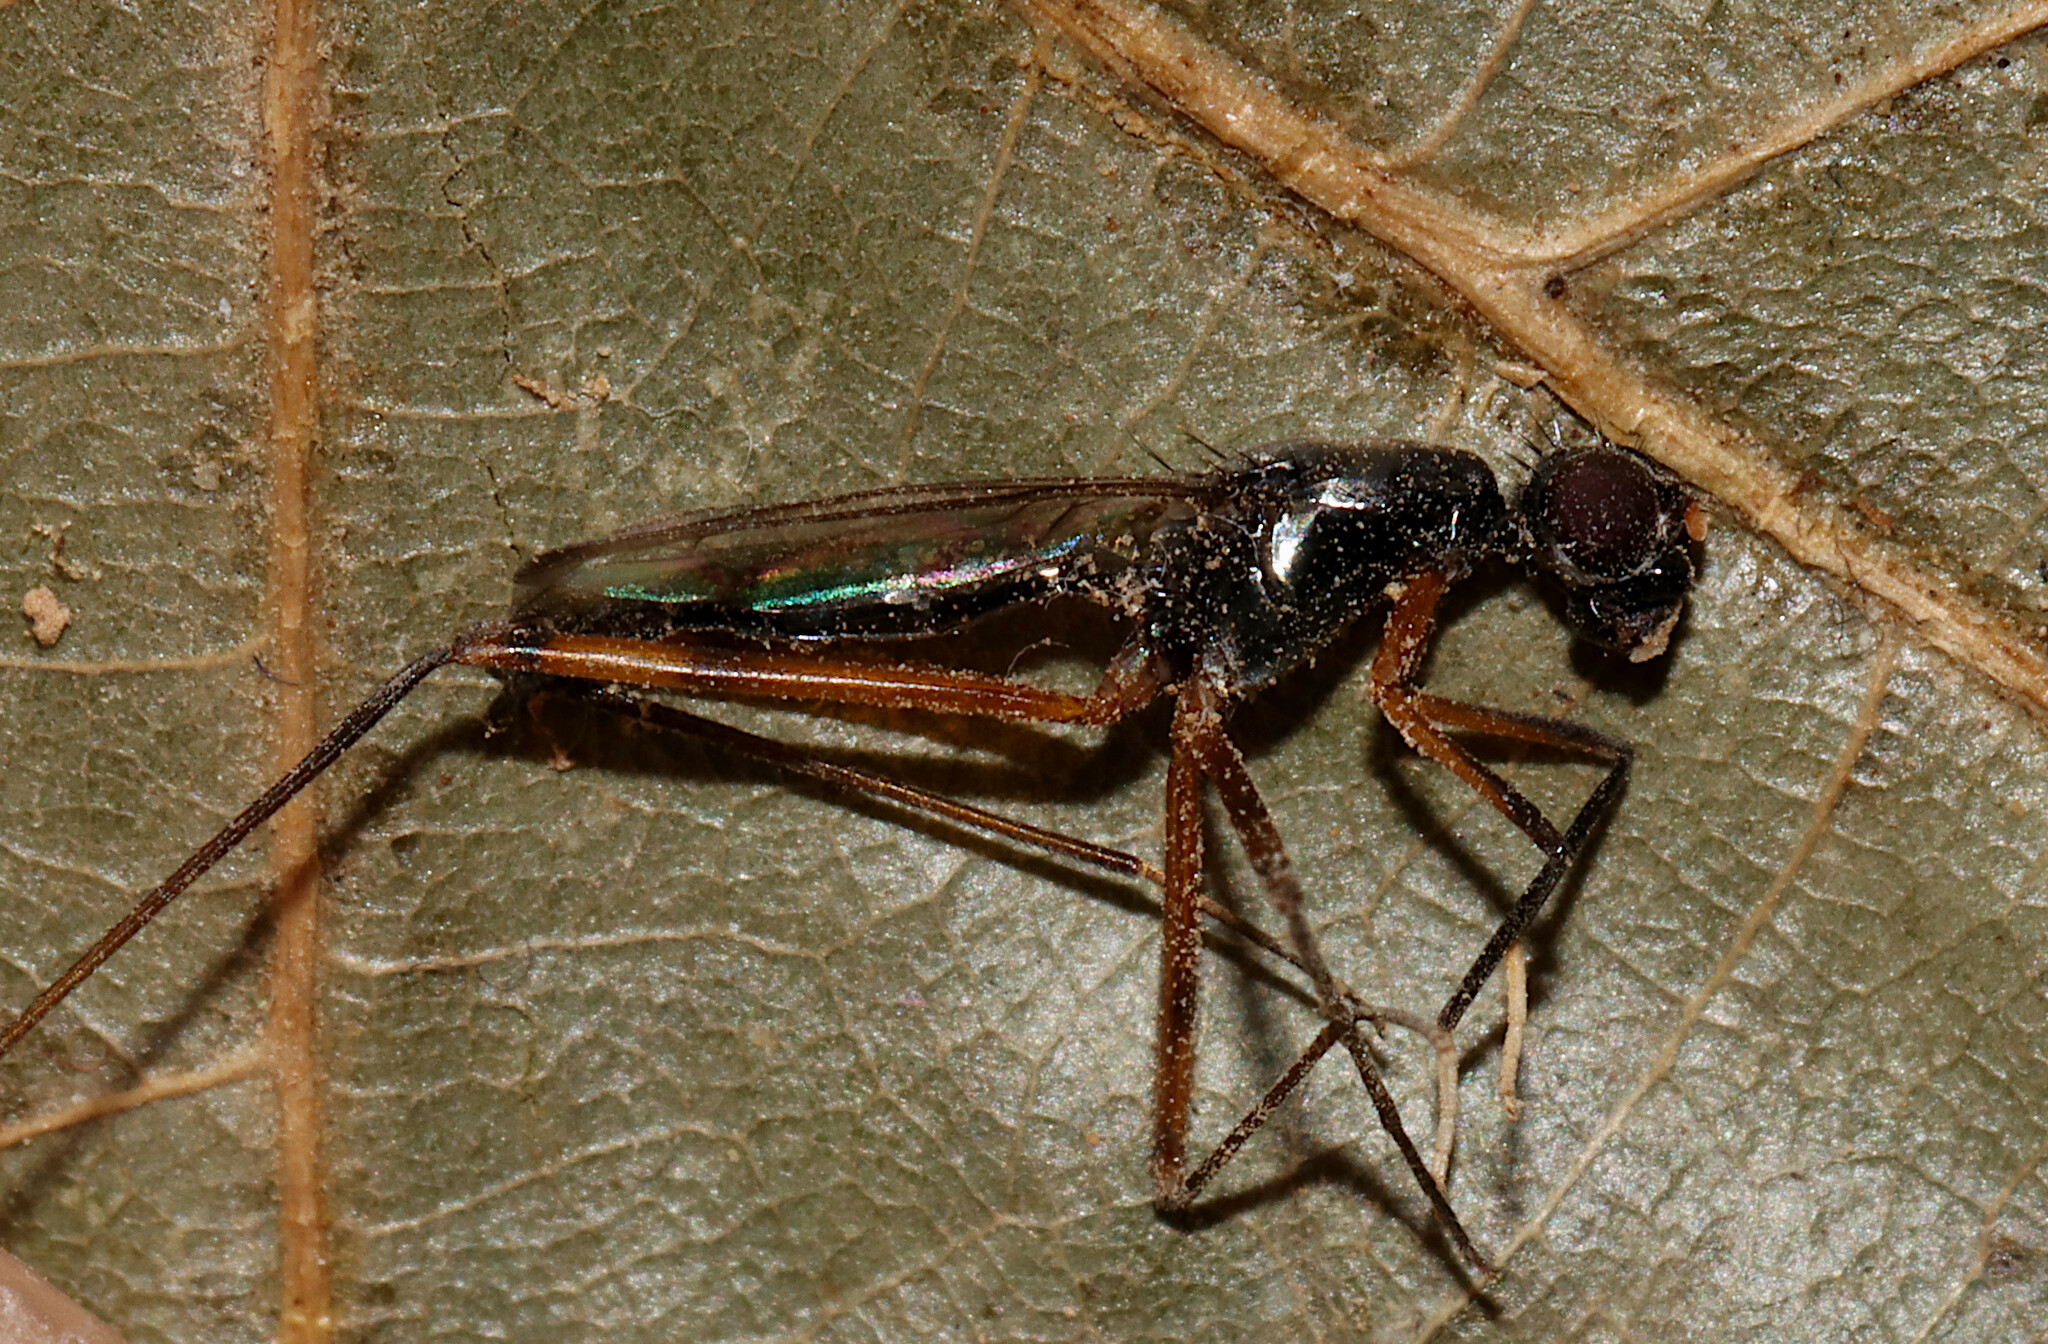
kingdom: Animalia
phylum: Arthropoda
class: Insecta
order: Diptera
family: Micropezidae
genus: Rainieria
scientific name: Rainieria antennaepes
